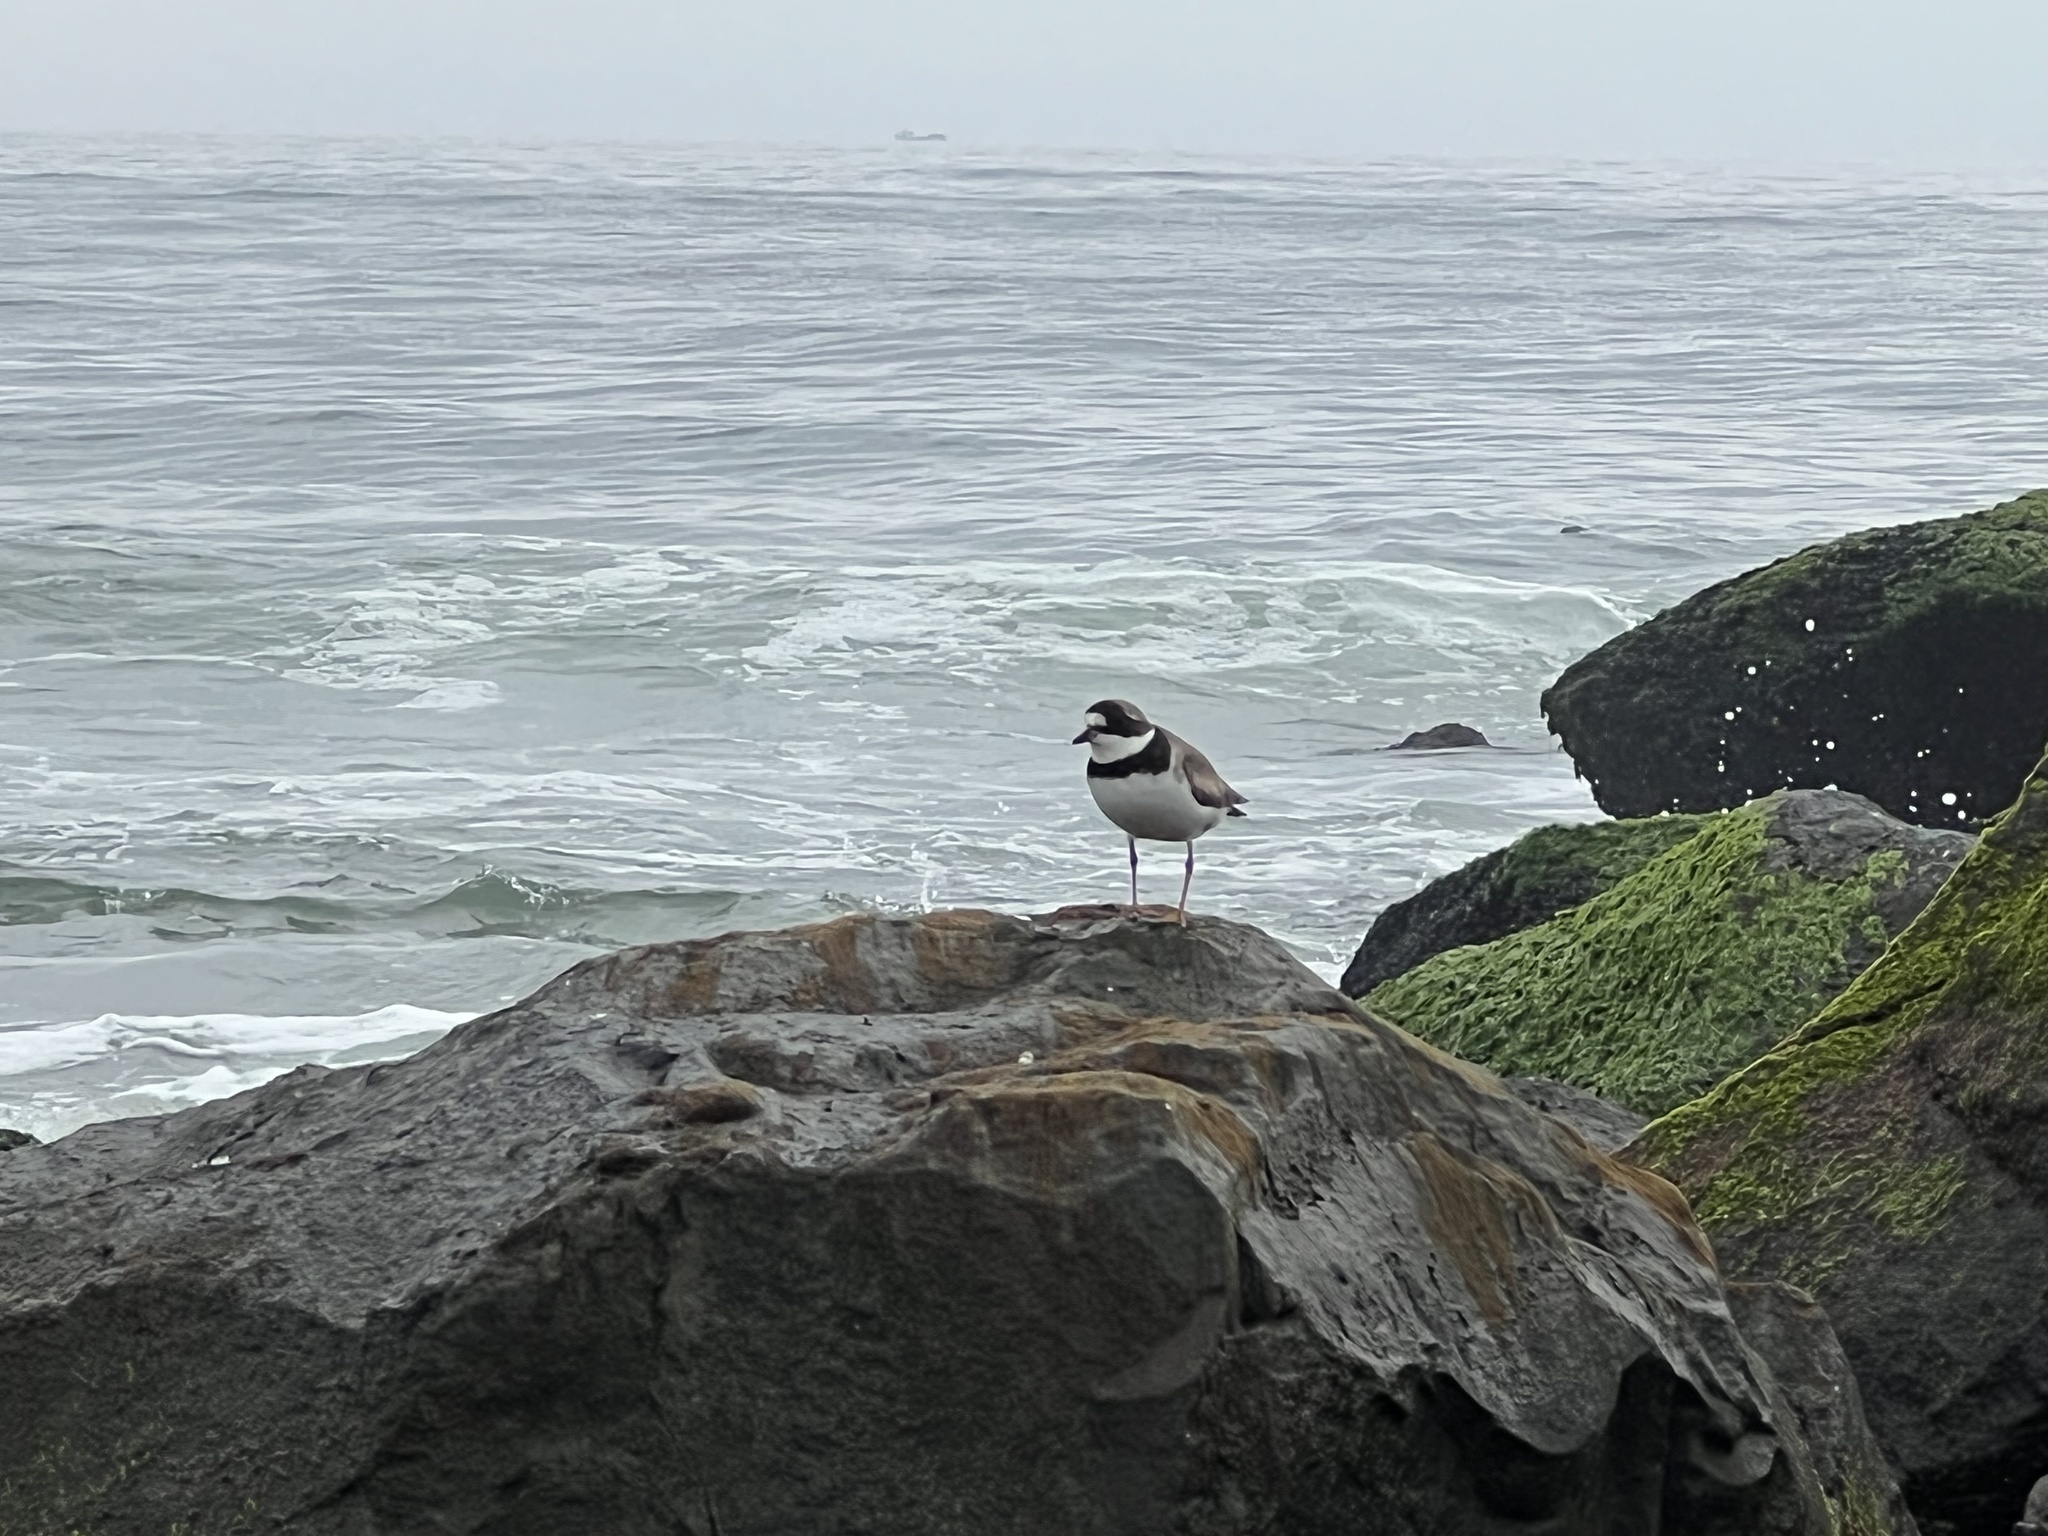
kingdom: Animalia
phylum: Chordata
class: Aves
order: Charadriiformes
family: Charadriidae
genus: Charadrius
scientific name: Charadrius semipalmatus
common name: Semipalmated plover
